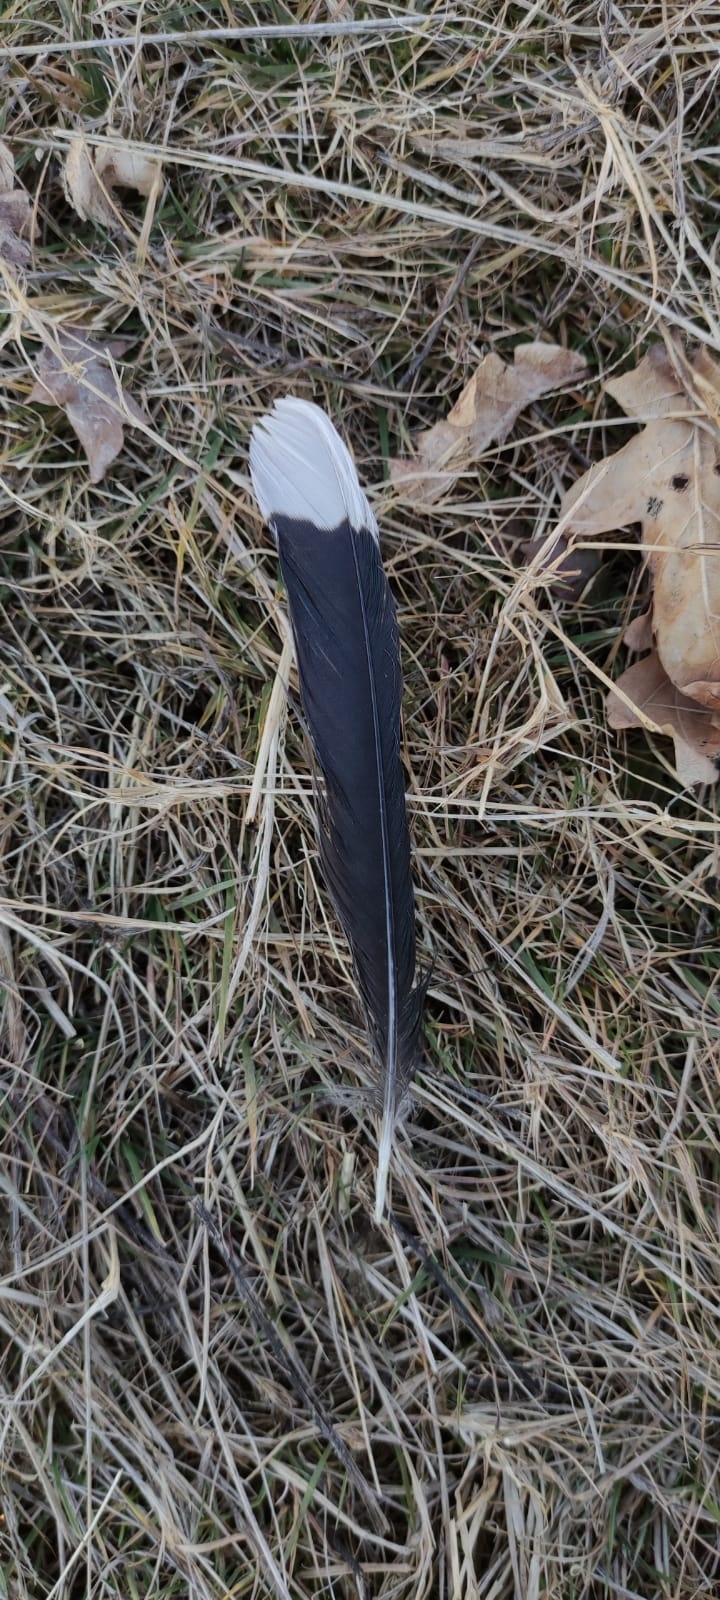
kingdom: Animalia
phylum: Chordata
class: Aves
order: Passeriformes
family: Corvidae
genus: Nucifraga
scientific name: Nucifraga caryocatactes
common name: Spotted nutcracker
